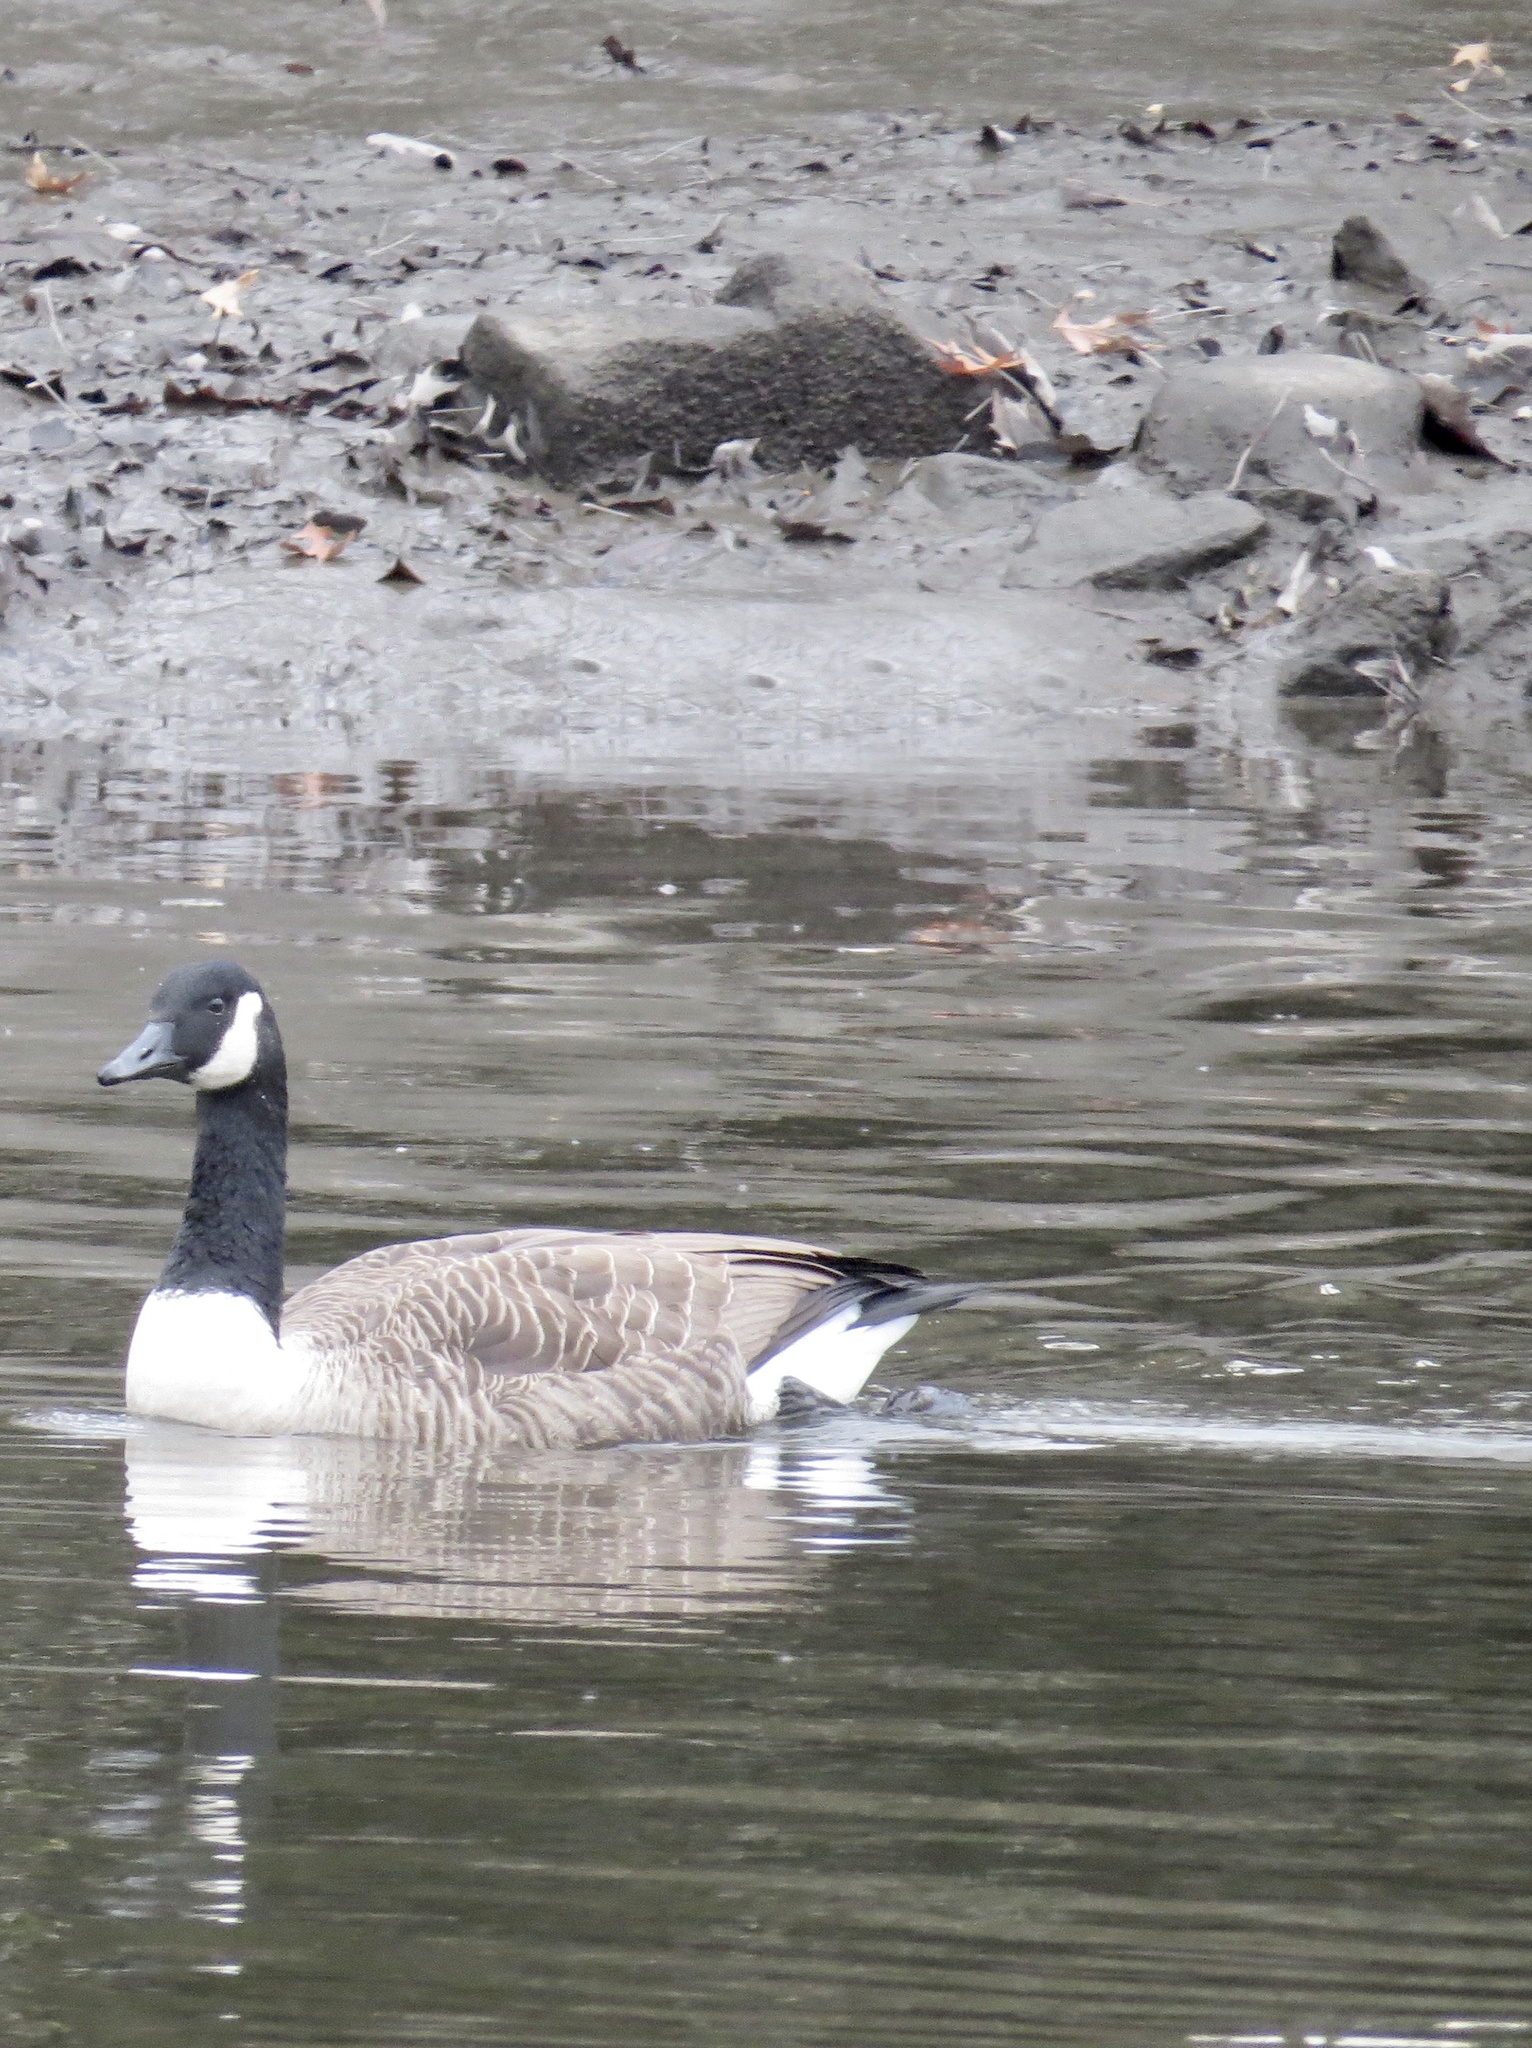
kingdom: Animalia
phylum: Chordata
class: Aves
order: Anseriformes
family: Anatidae
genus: Branta
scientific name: Branta canadensis
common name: Canada goose
